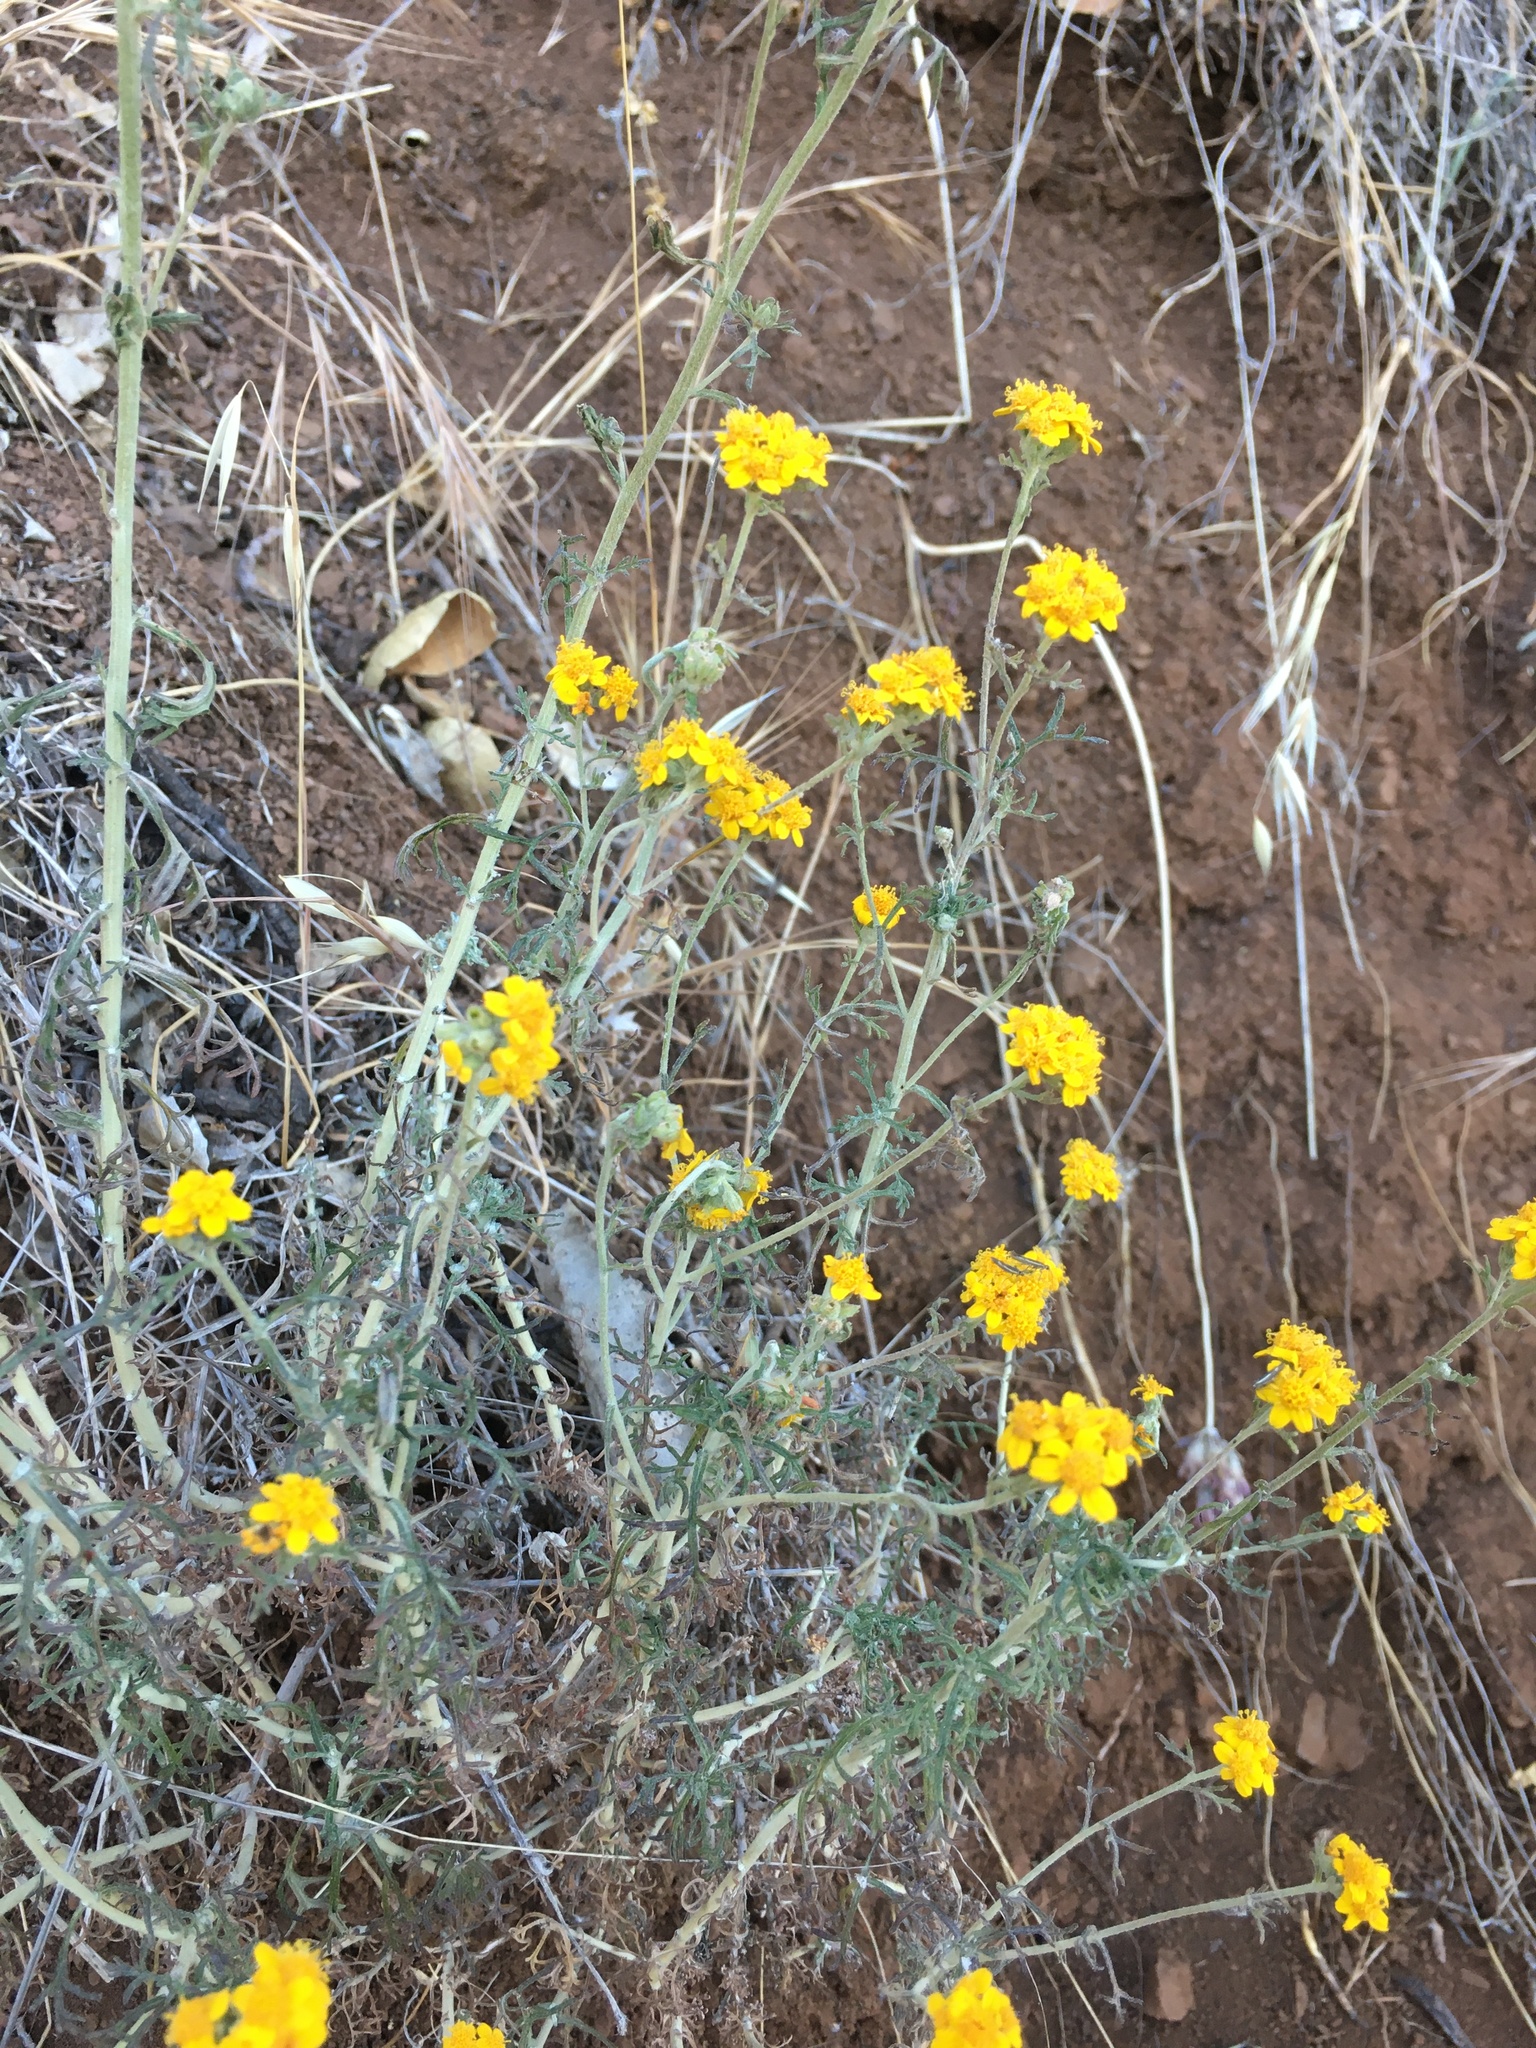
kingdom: Plantae
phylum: Tracheophyta
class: Magnoliopsida
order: Asterales
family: Asteraceae
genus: Eriophyllum
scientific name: Eriophyllum confertiflorum
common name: Golden-yarrow
